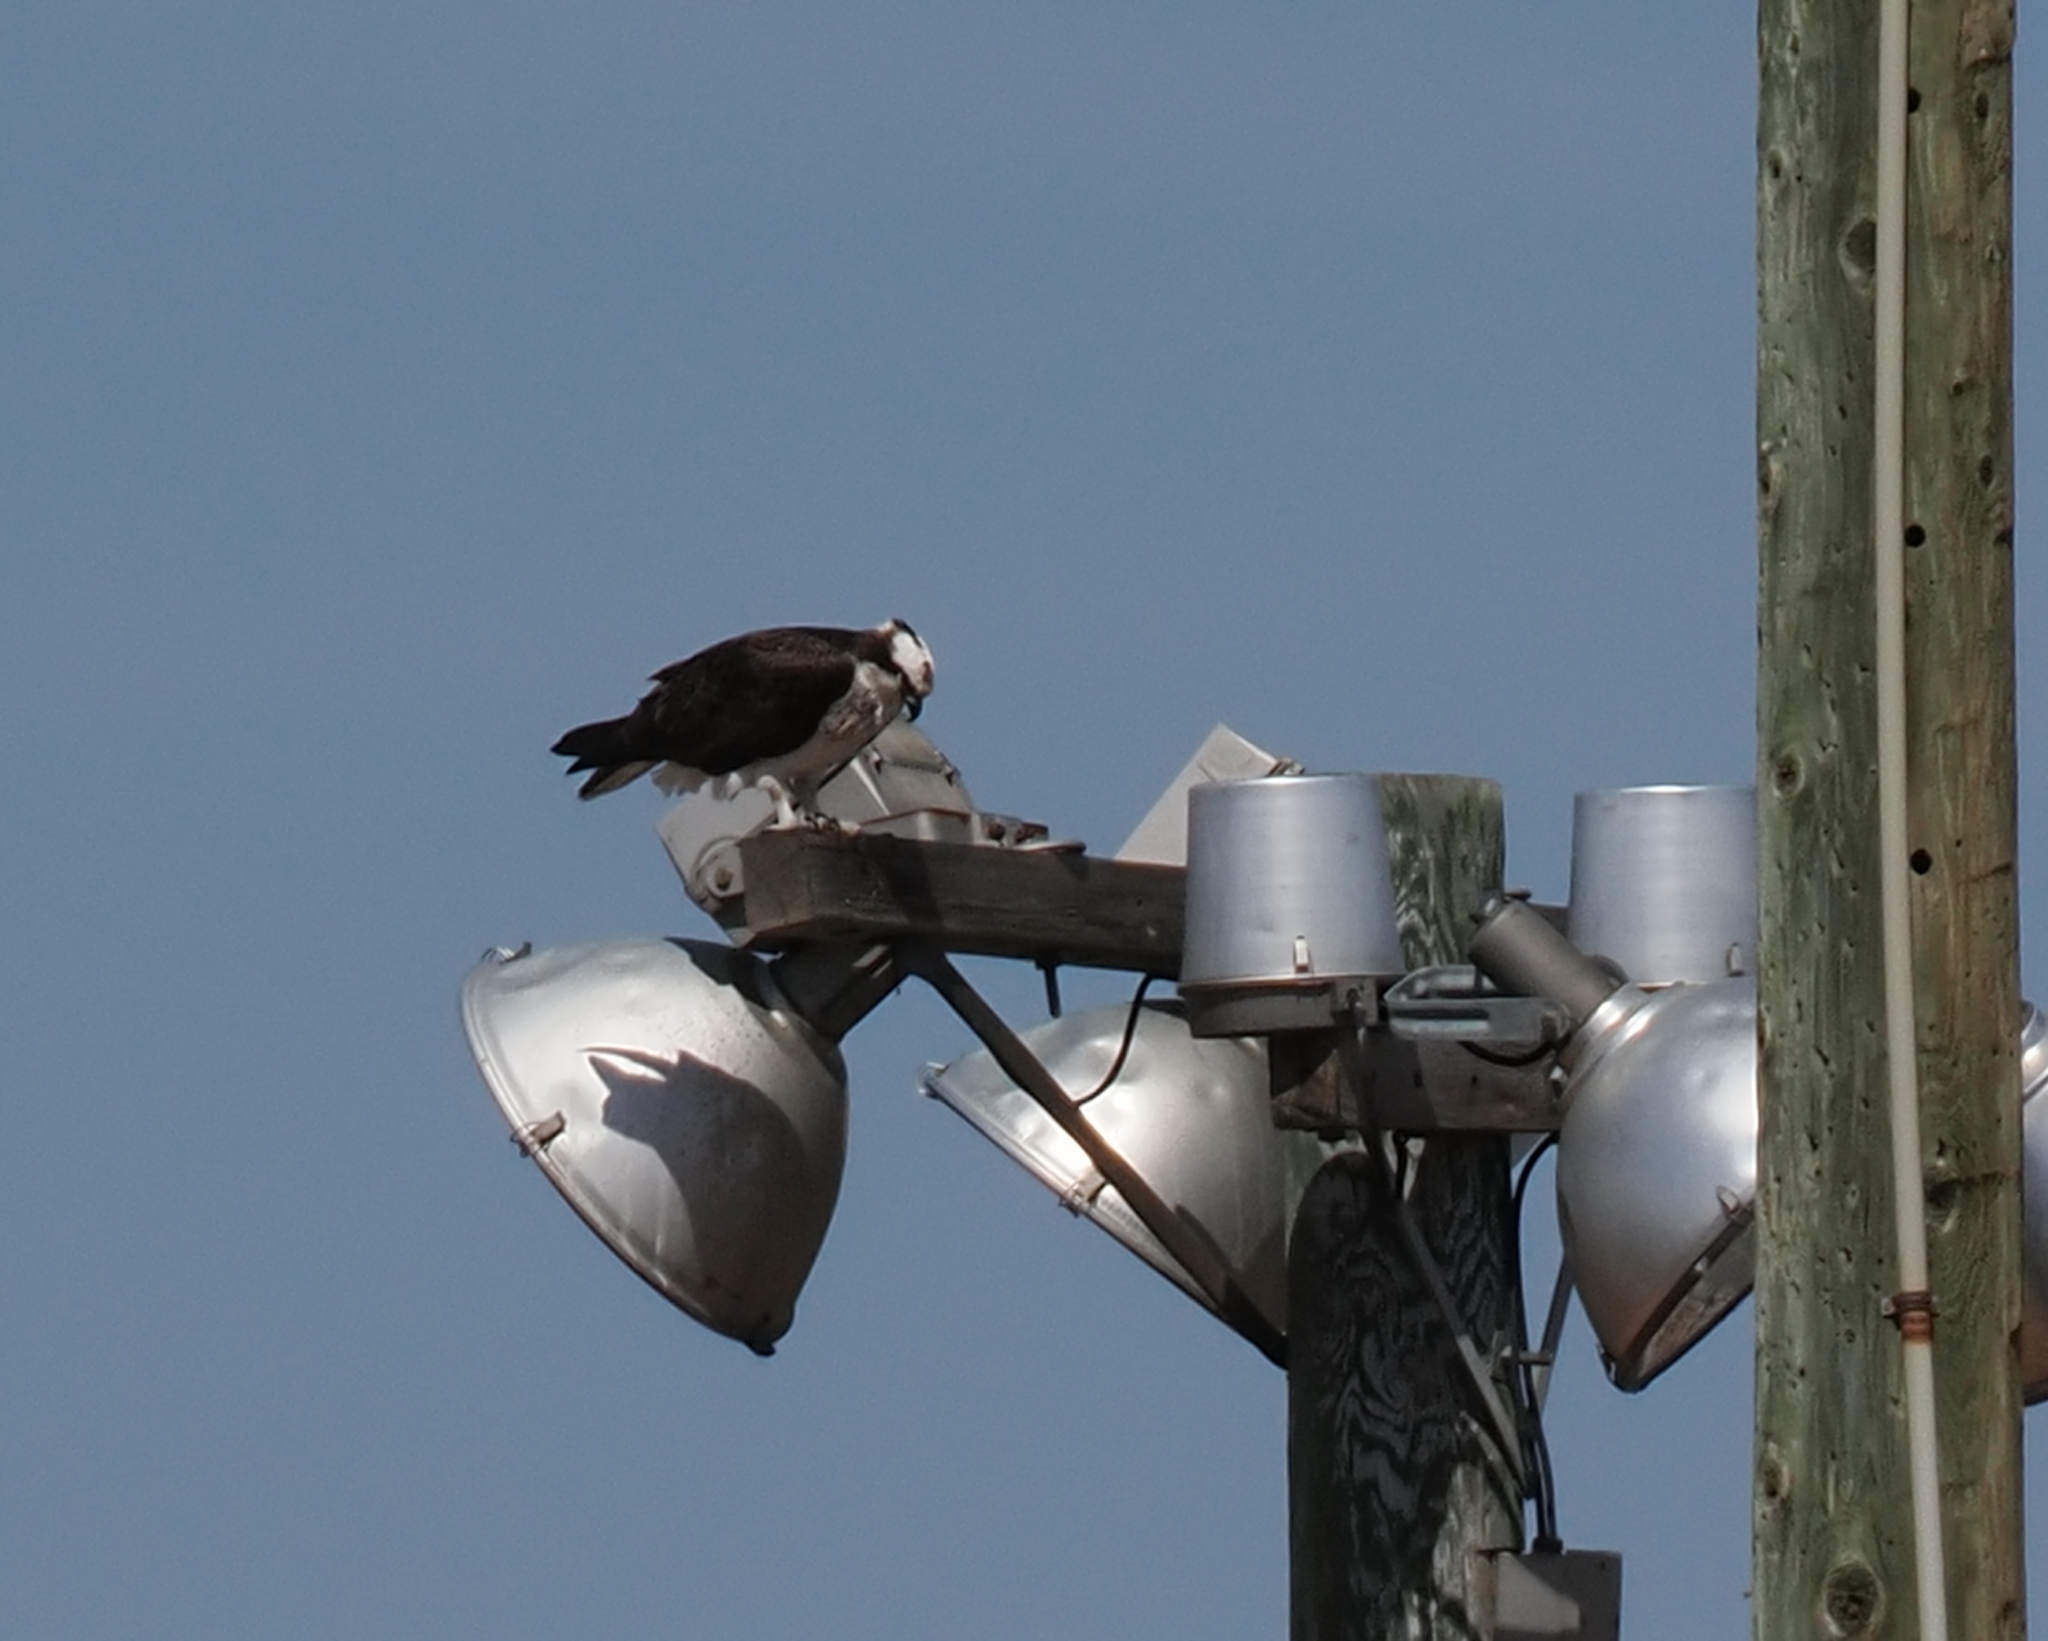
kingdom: Animalia
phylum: Chordata
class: Aves
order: Accipitriformes
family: Pandionidae
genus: Pandion
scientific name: Pandion haliaetus
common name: Osprey
